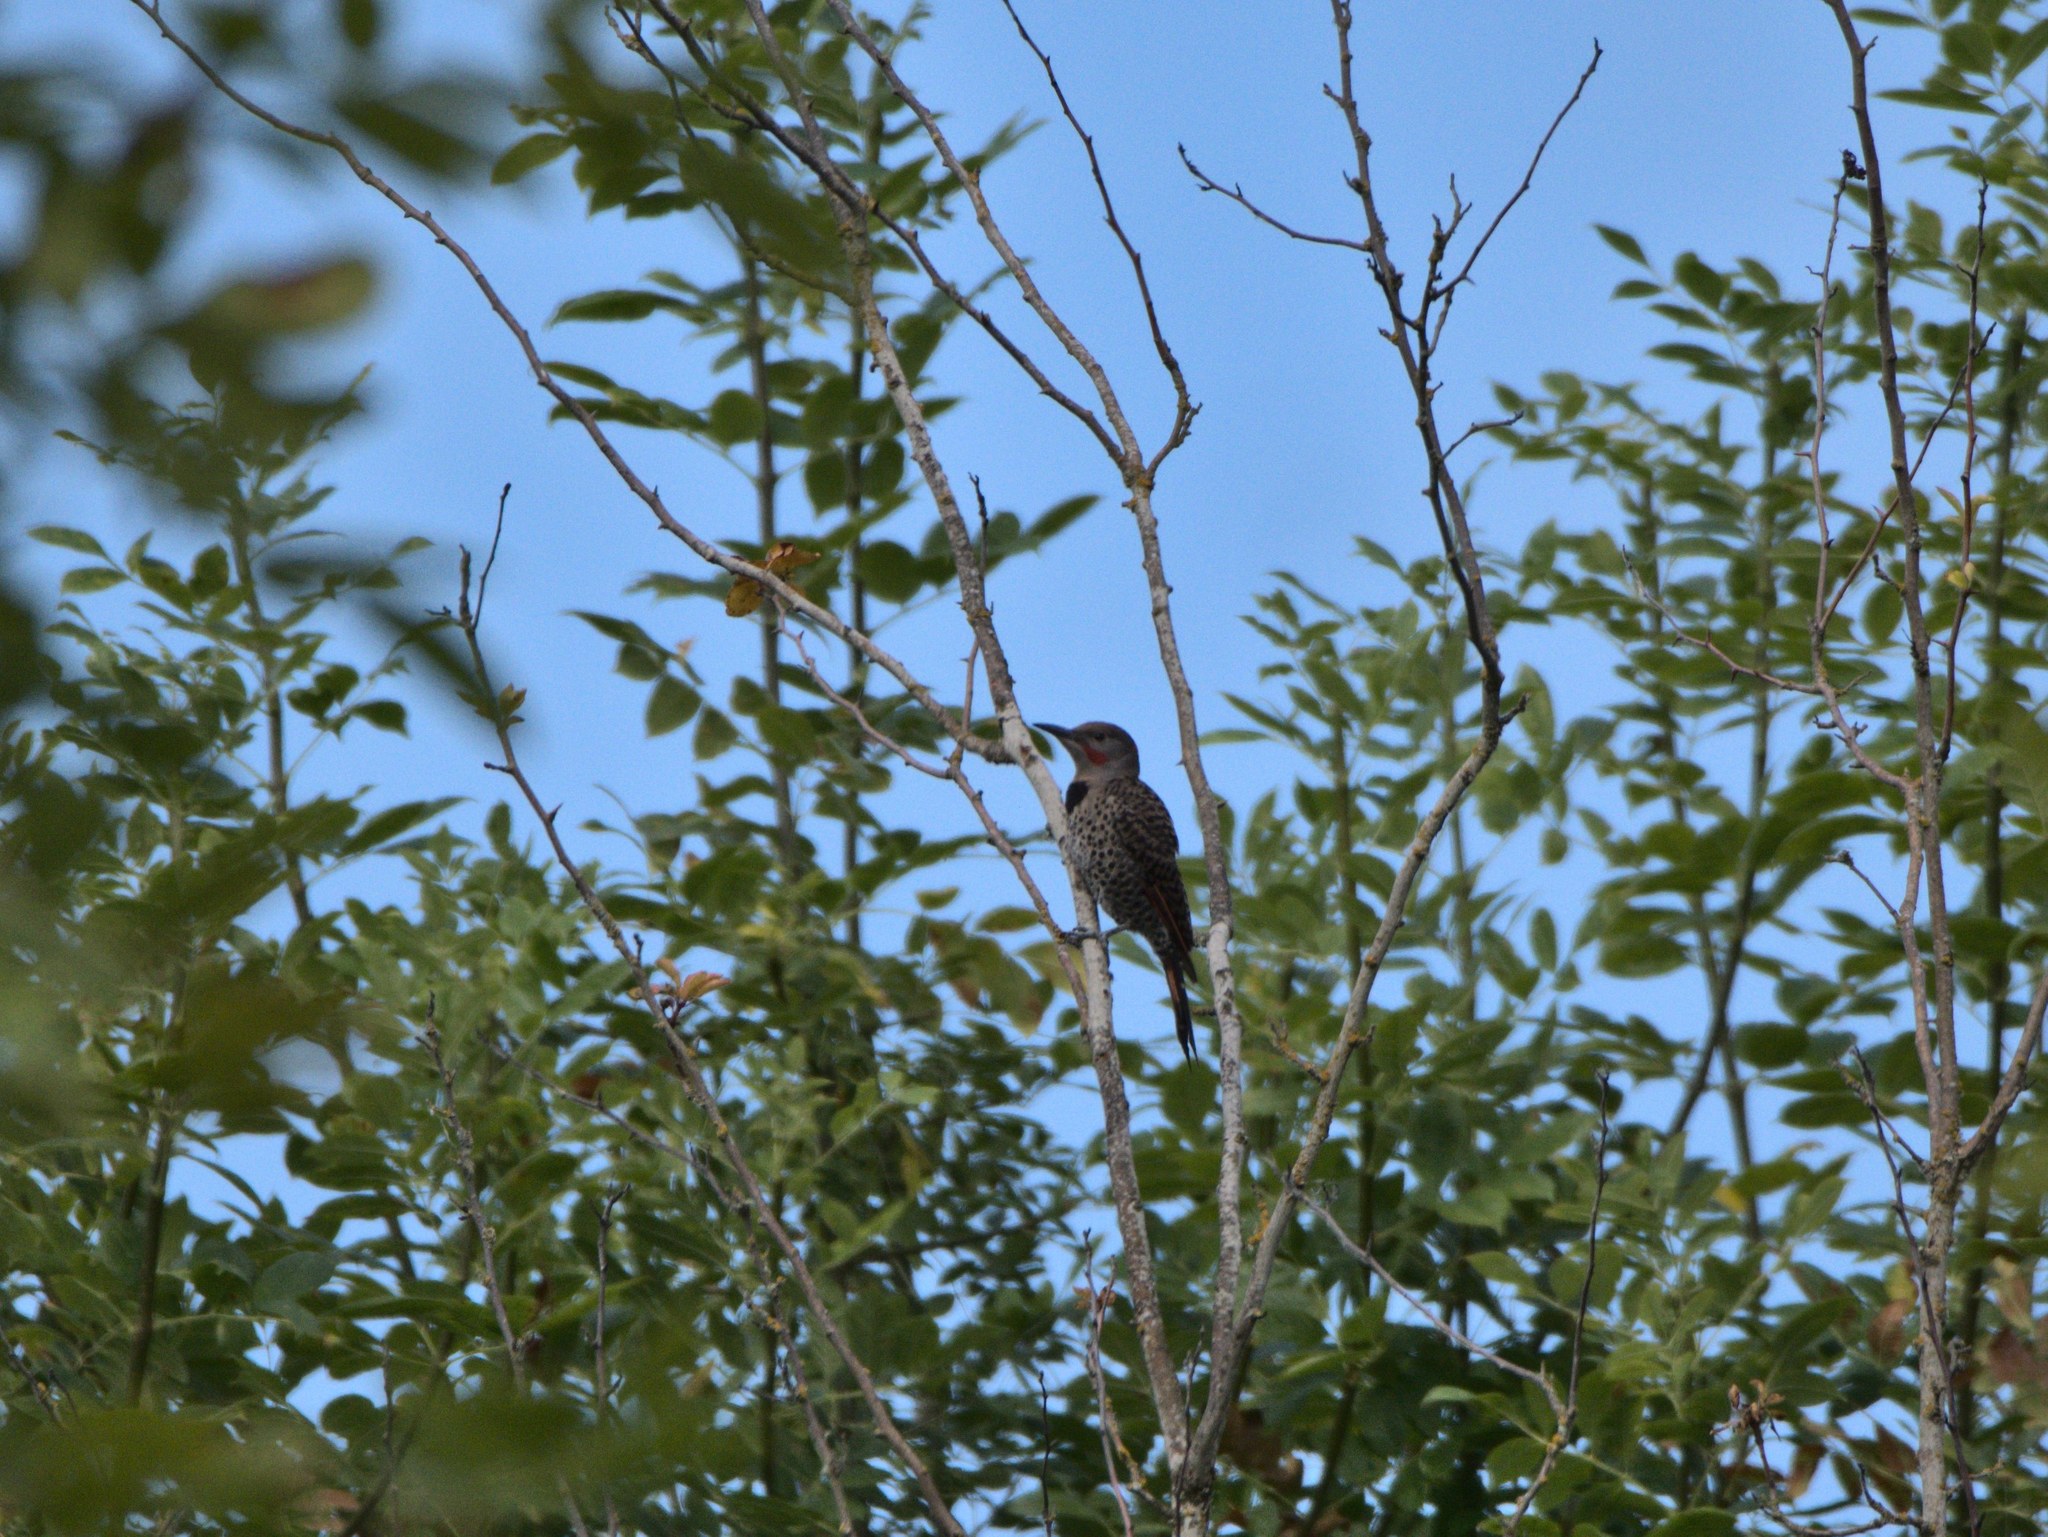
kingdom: Animalia
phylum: Chordata
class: Aves
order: Piciformes
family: Picidae
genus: Colaptes
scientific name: Colaptes auratus
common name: Northern flicker
